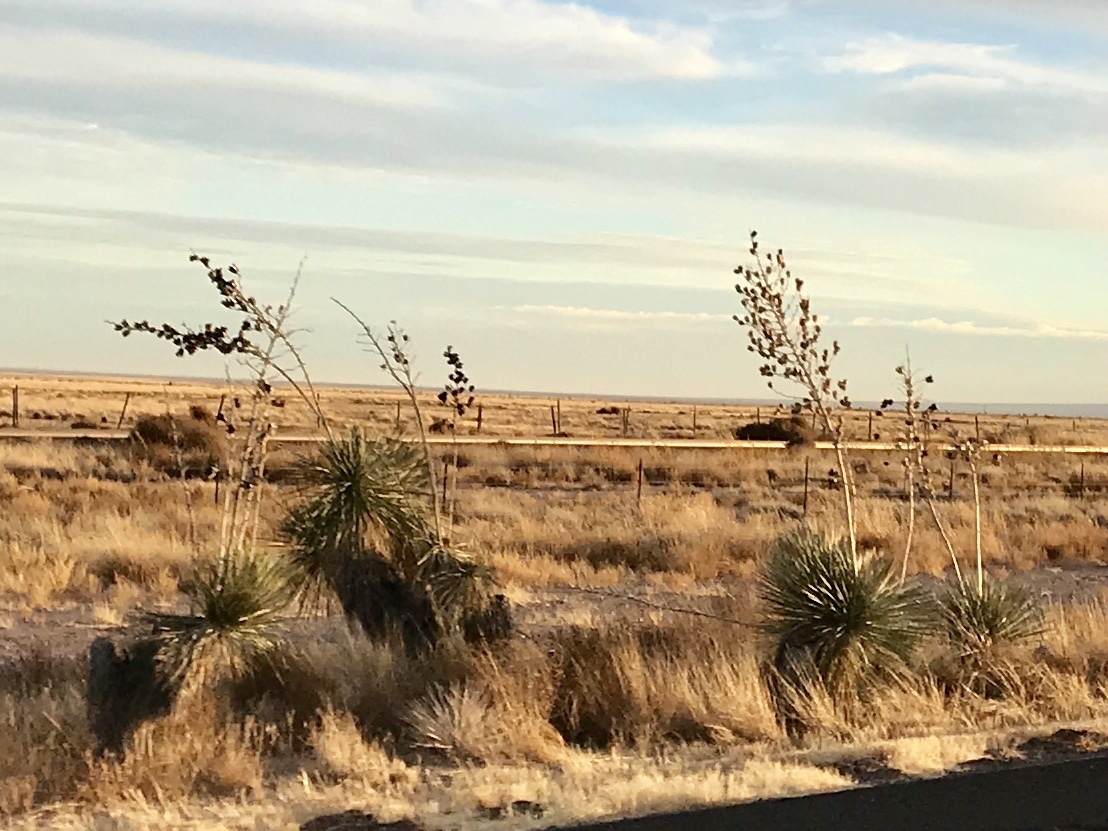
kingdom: Plantae
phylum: Tracheophyta
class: Liliopsida
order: Asparagales
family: Asparagaceae
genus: Yucca
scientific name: Yucca elata
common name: Palmella
